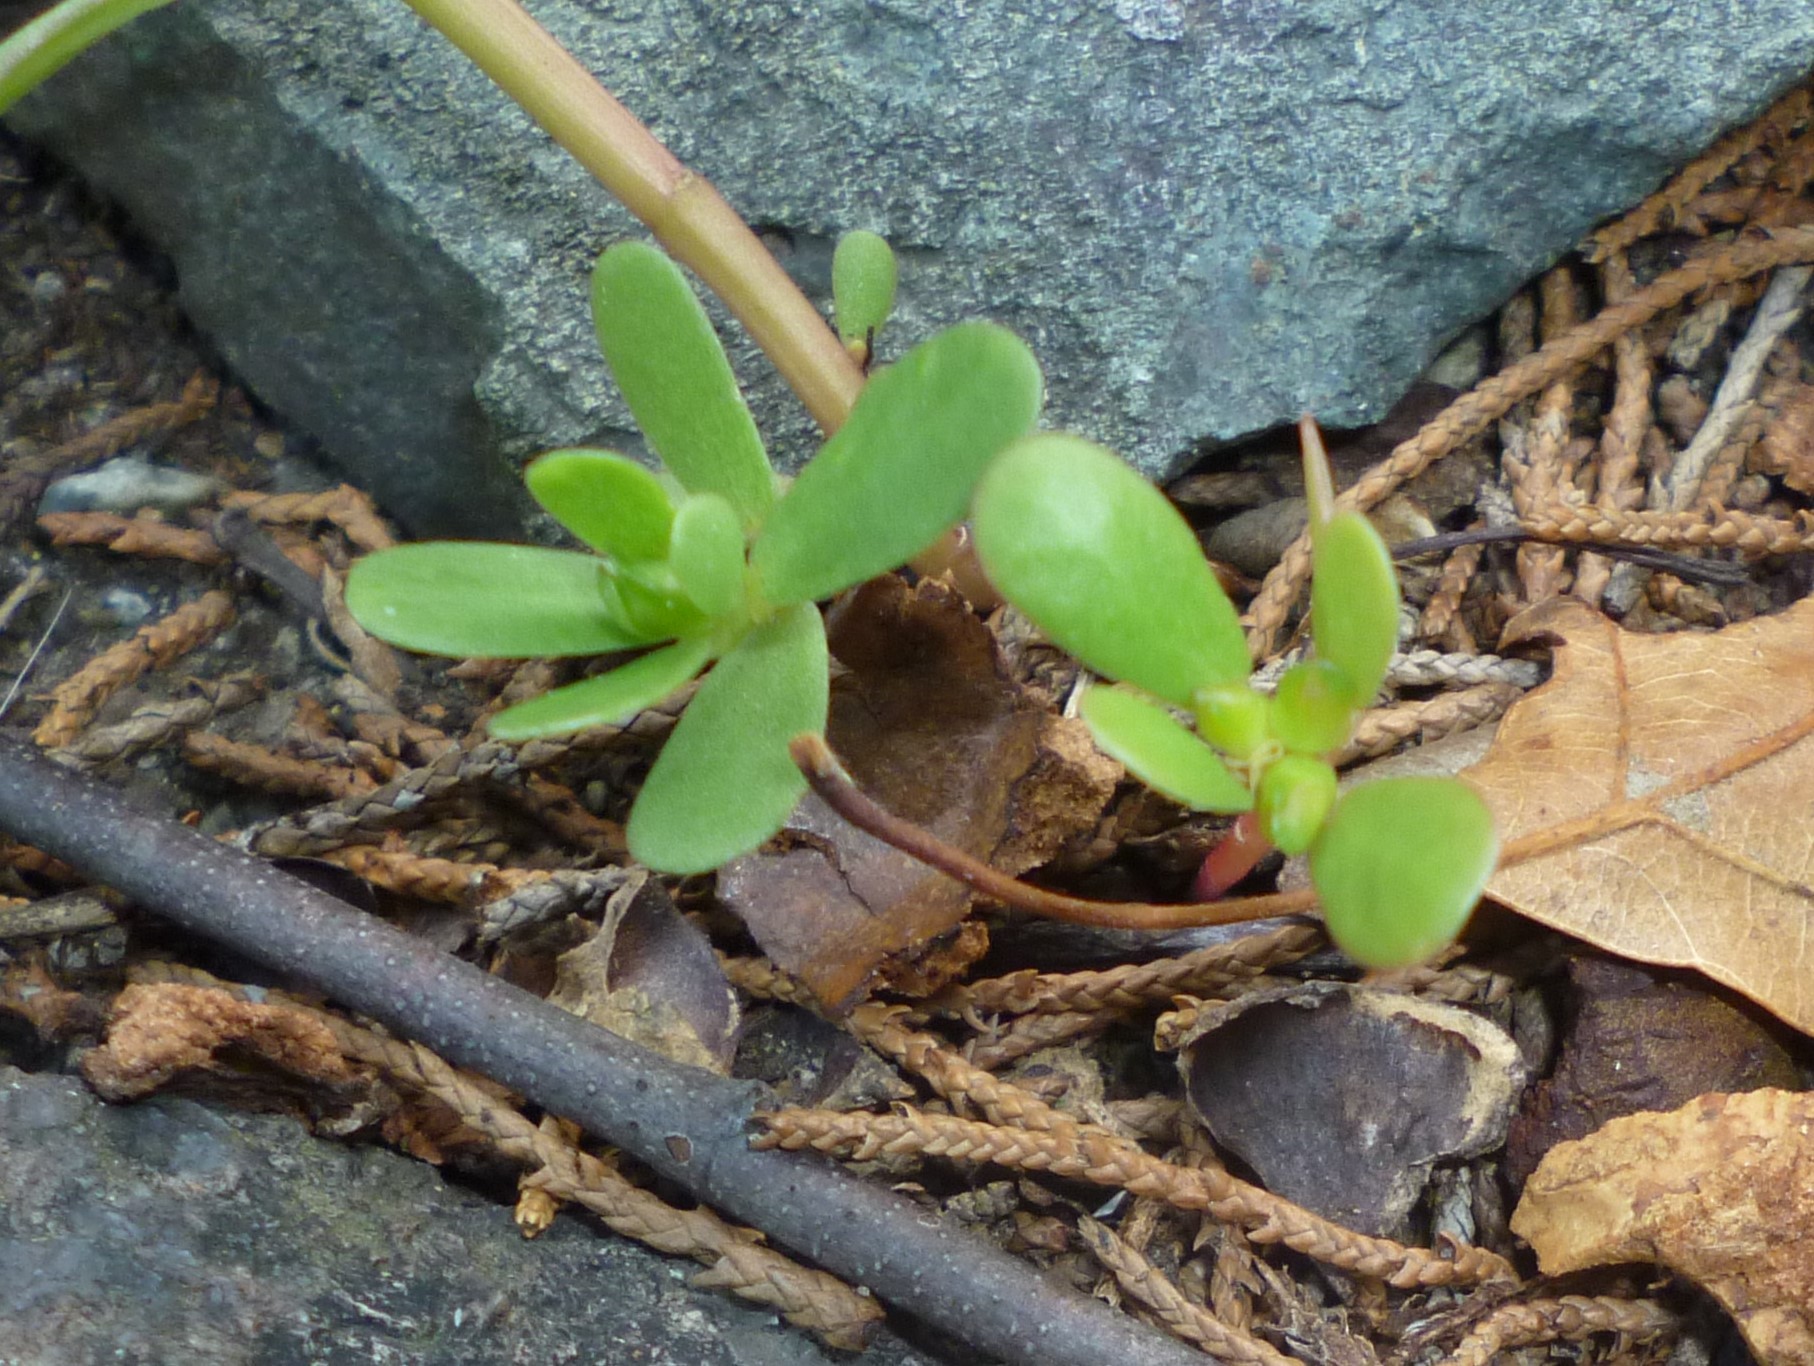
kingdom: Plantae
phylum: Tracheophyta
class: Magnoliopsida
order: Caryophyllales
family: Portulacaceae
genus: Portulaca
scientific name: Portulaca oleracea
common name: Common purslane
